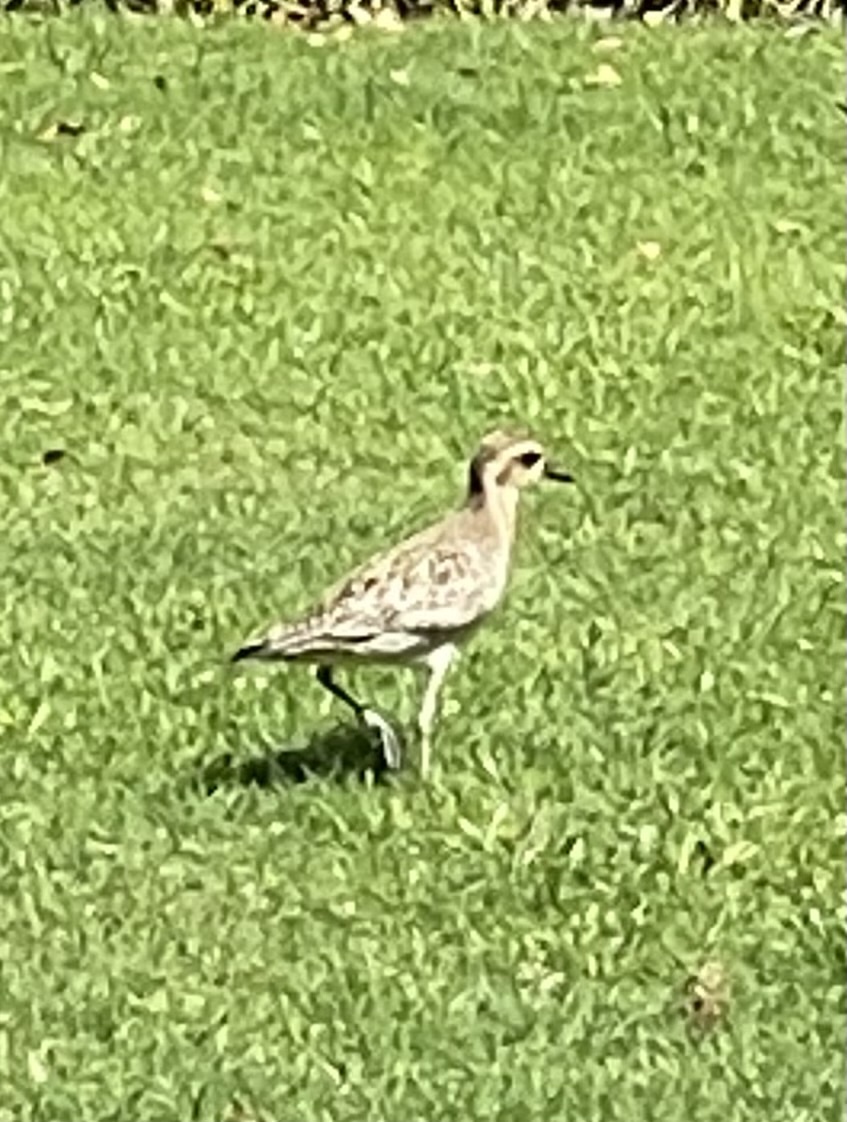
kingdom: Animalia
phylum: Chordata
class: Aves
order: Charadriiformes
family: Charadriidae
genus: Pluvialis
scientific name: Pluvialis fulva
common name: Pacific golden plover
